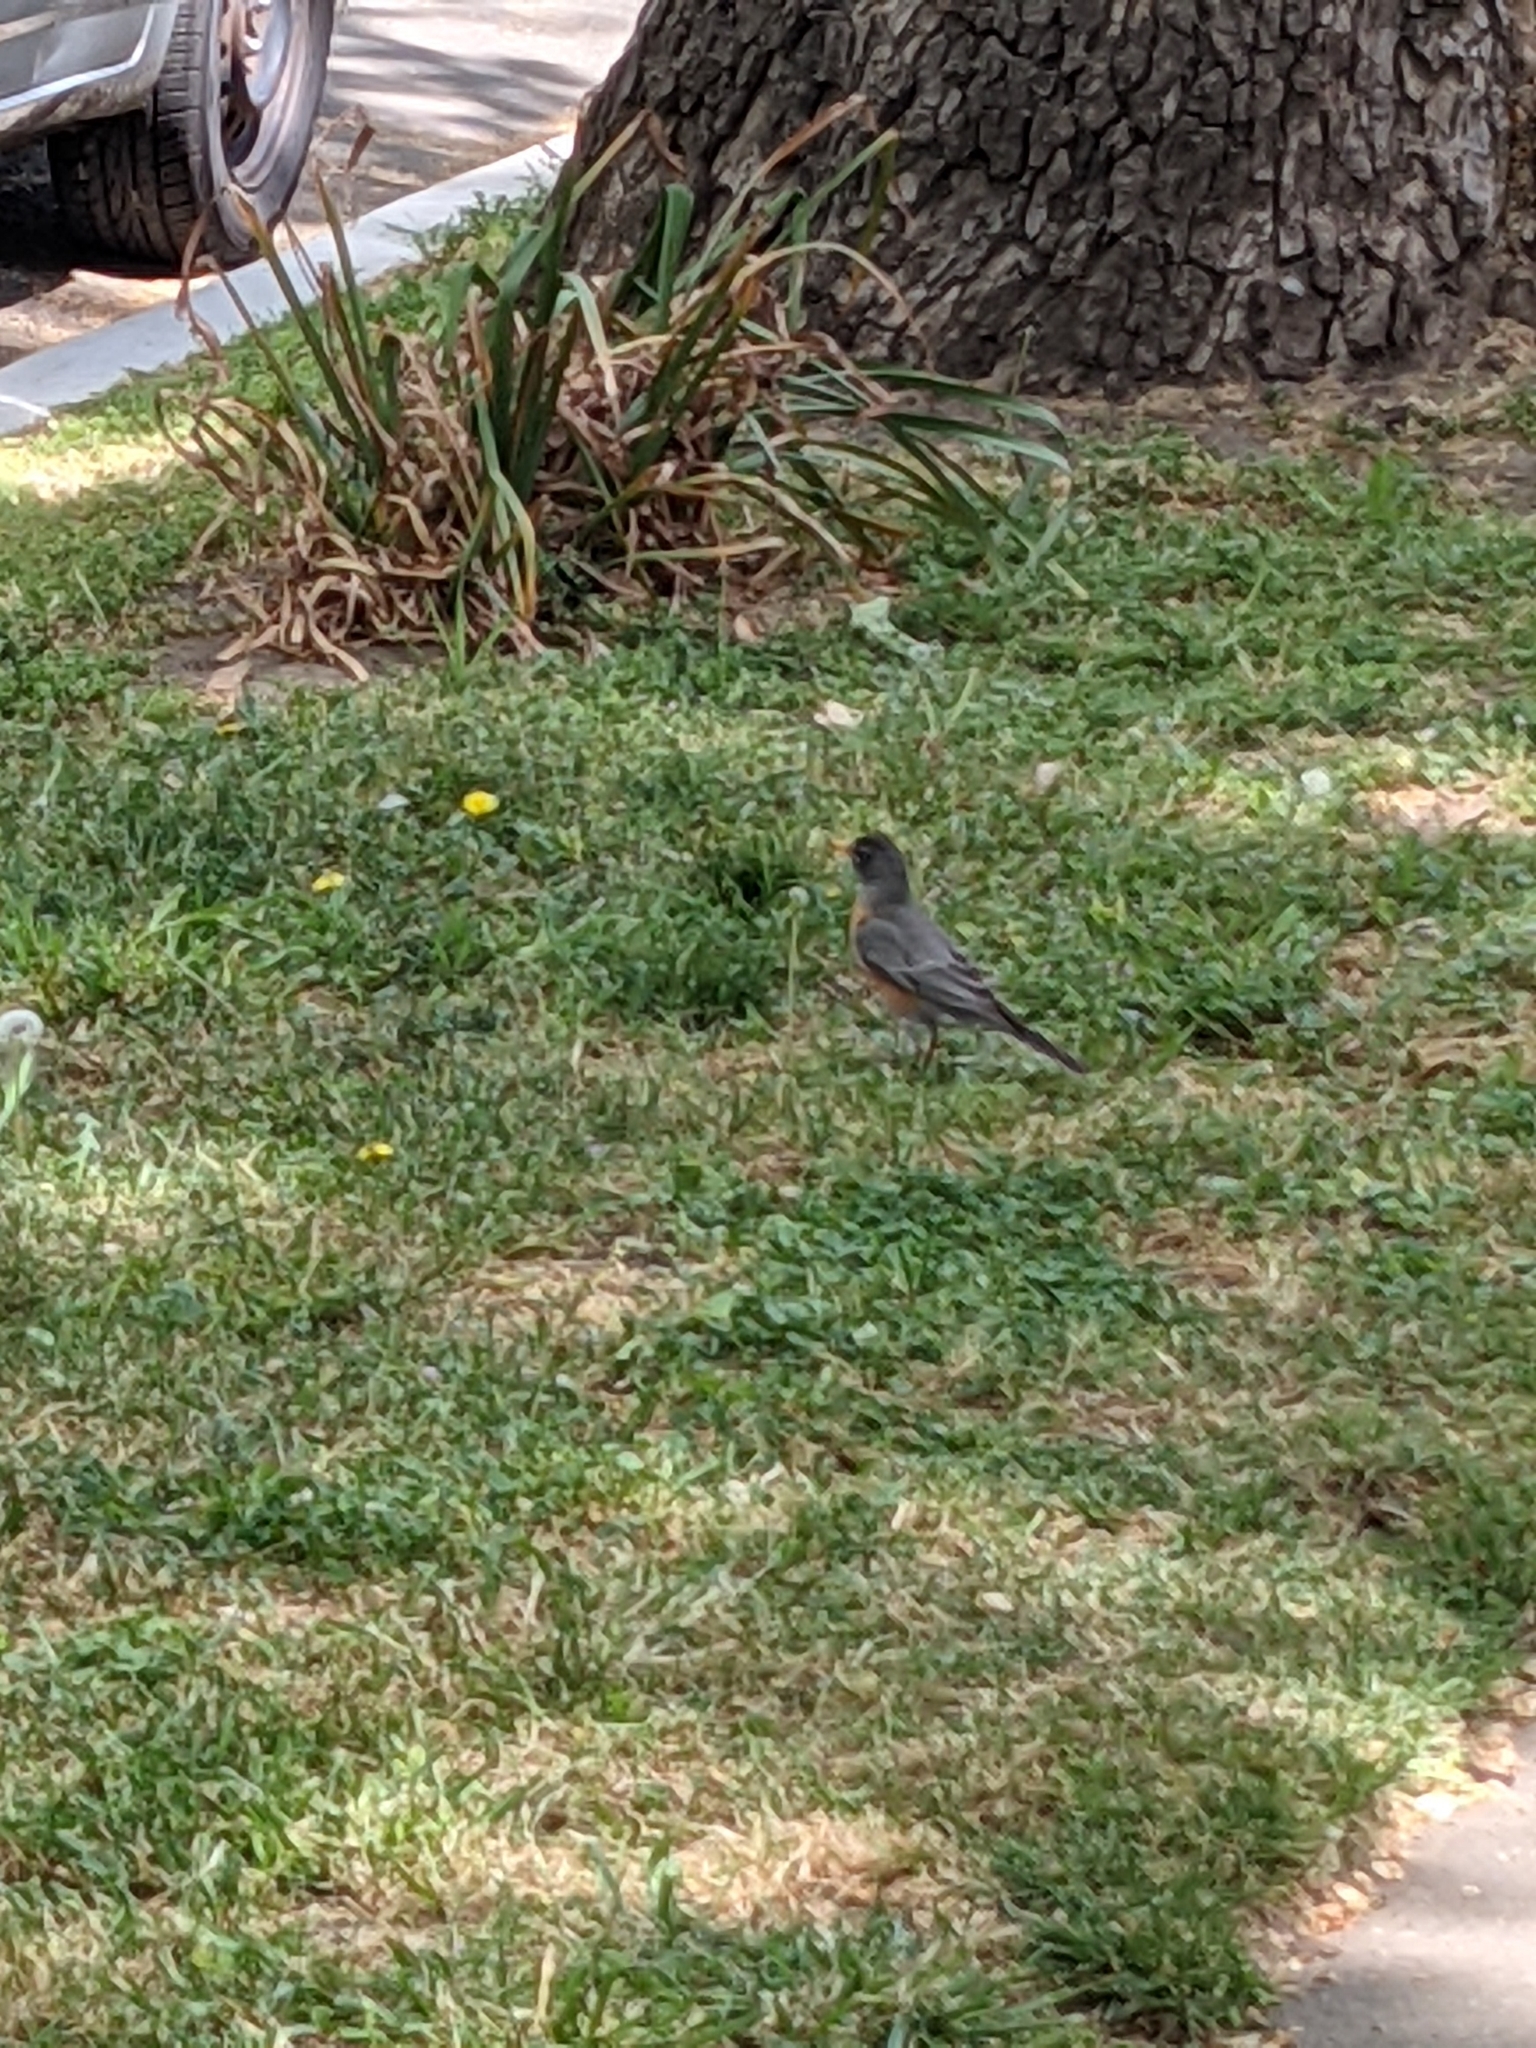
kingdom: Animalia
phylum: Chordata
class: Aves
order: Passeriformes
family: Turdidae
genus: Turdus
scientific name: Turdus migratorius
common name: American robin
